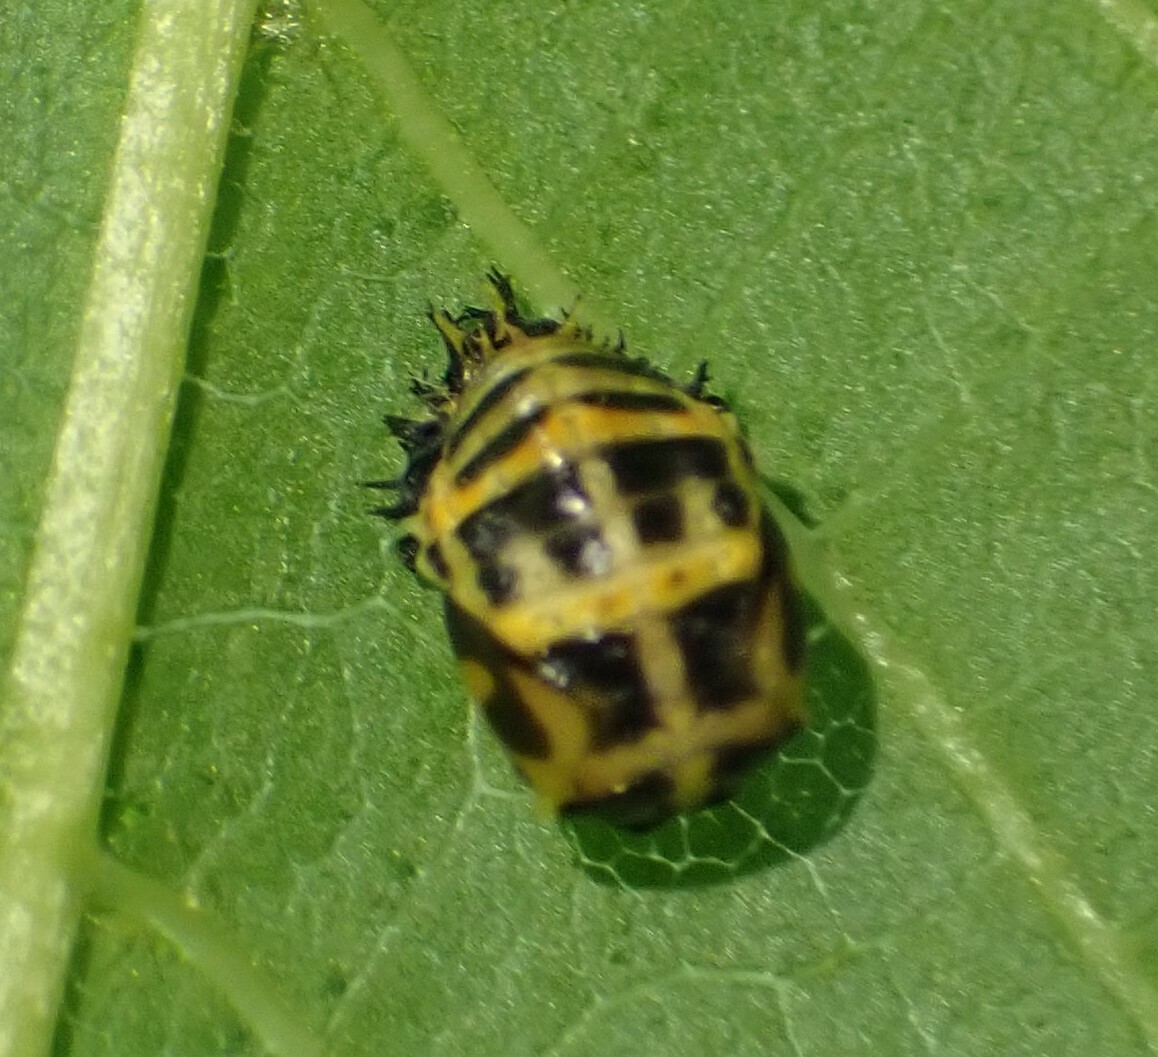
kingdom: Animalia
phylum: Arthropoda
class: Insecta
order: Coleoptera
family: Coccinellidae
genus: Harmonia
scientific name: Harmonia conformis
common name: Common spotted ladybird beetle
